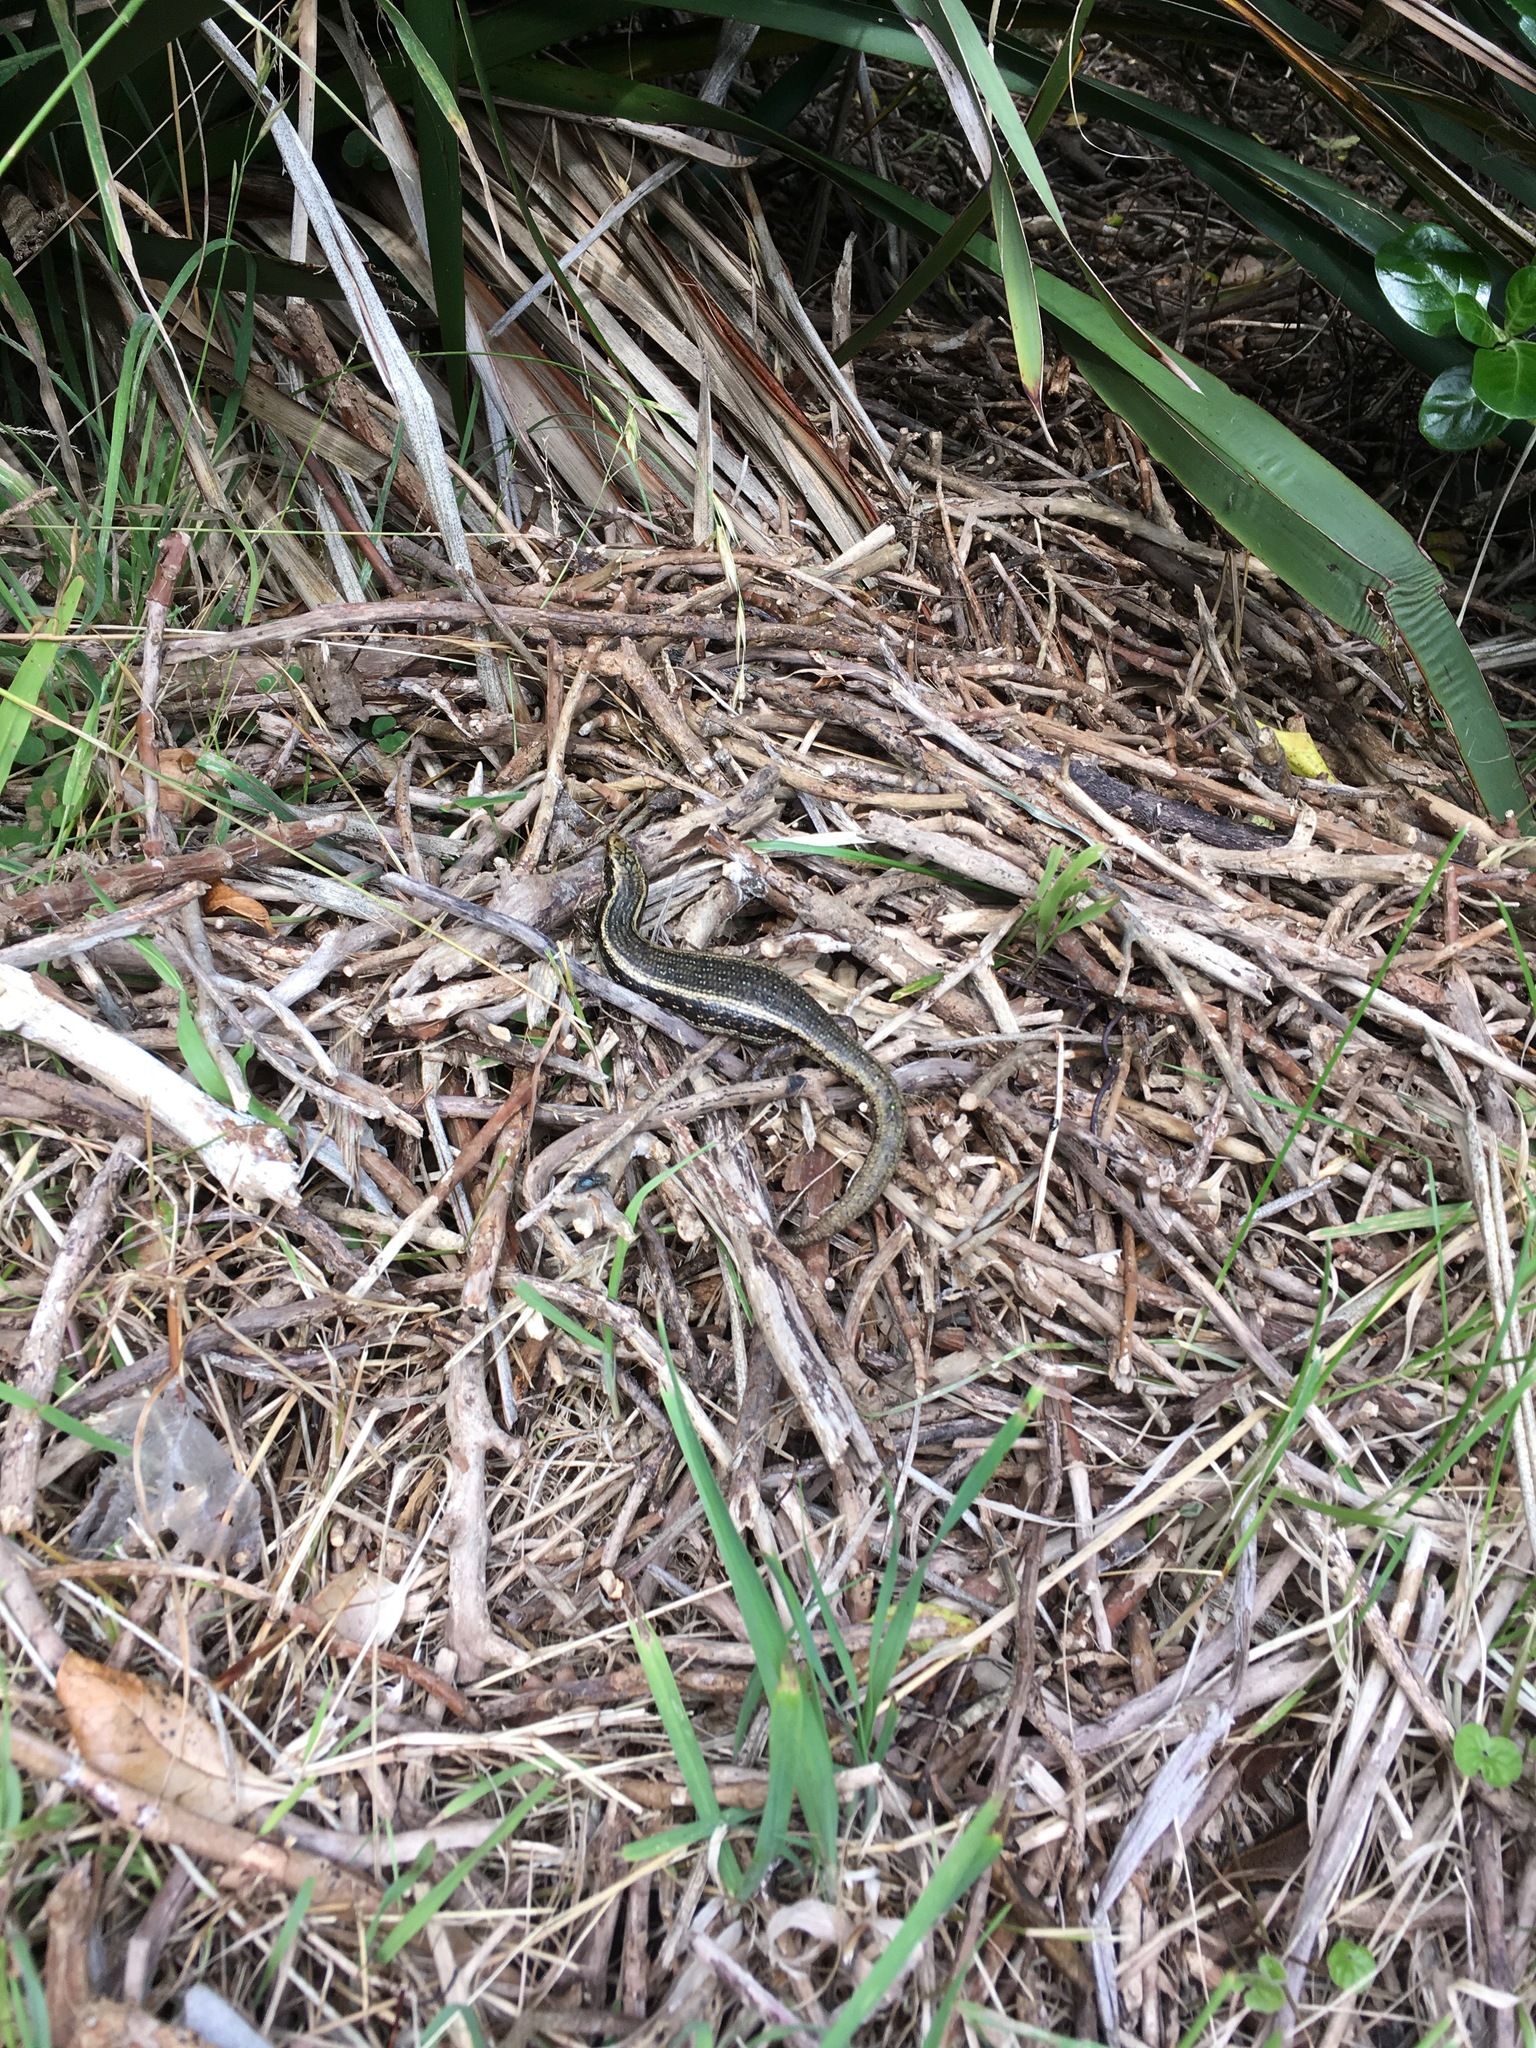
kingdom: Animalia
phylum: Chordata
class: Squamata
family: Scincidae
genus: Oligosoma
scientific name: Oligosoma kokowai
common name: Northern spotted skink
